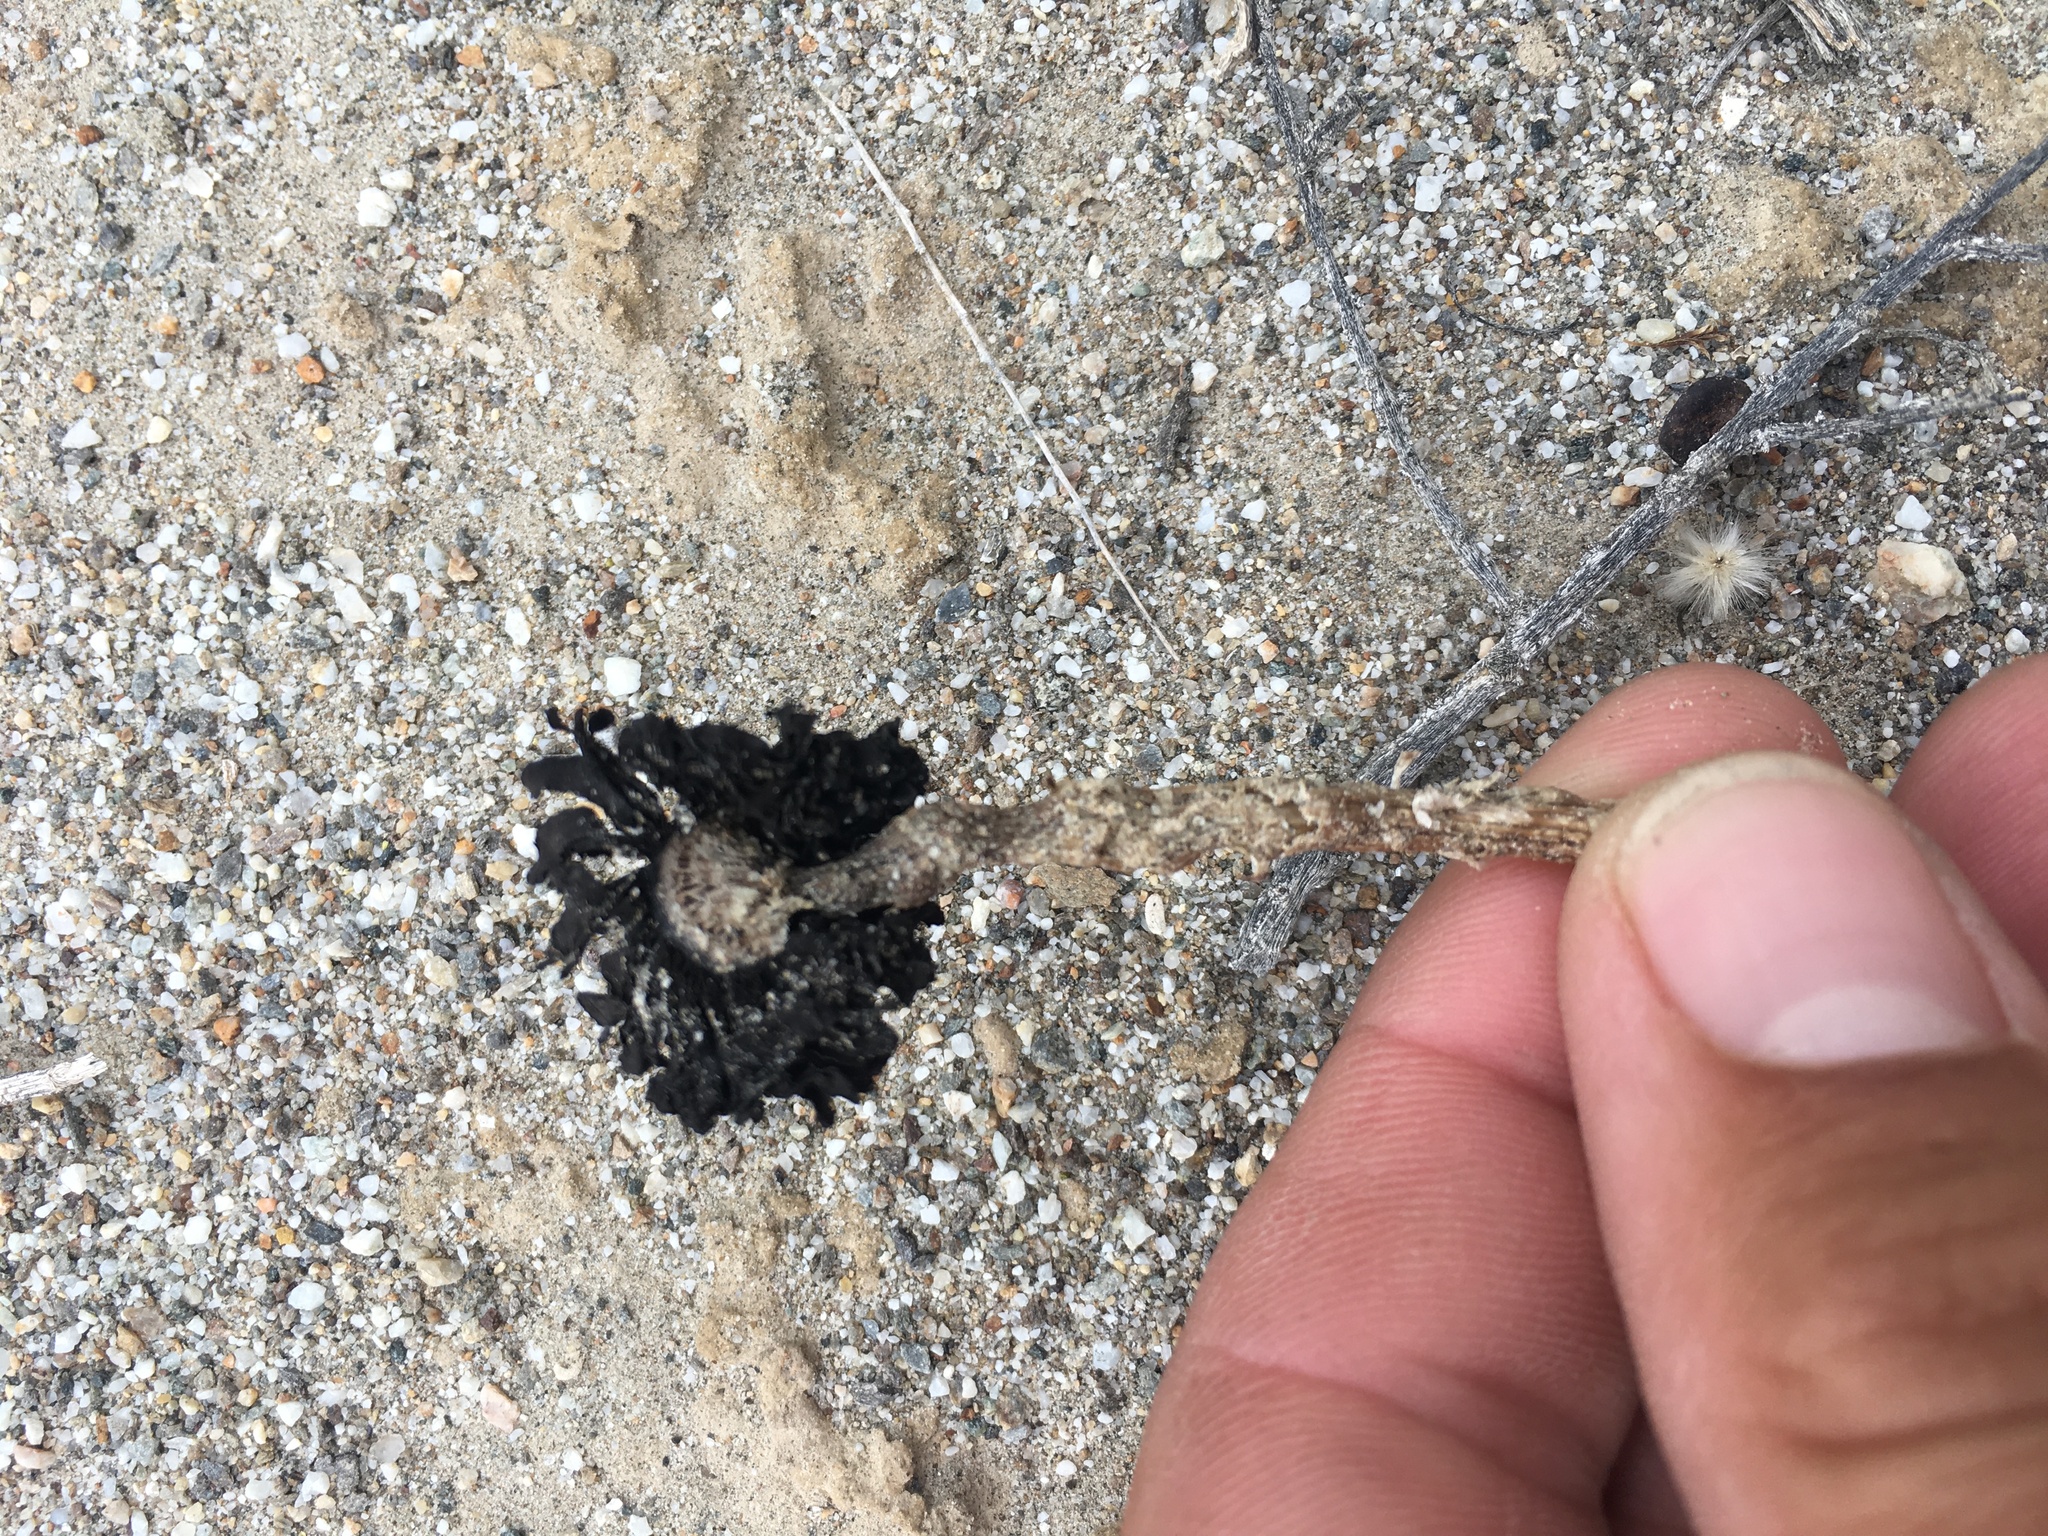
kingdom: Fungi
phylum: Basidiomycota
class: Agaricomycetes
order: Agaricales
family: Agaricaceae
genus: Montagnea
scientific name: Montagnea arenaria
